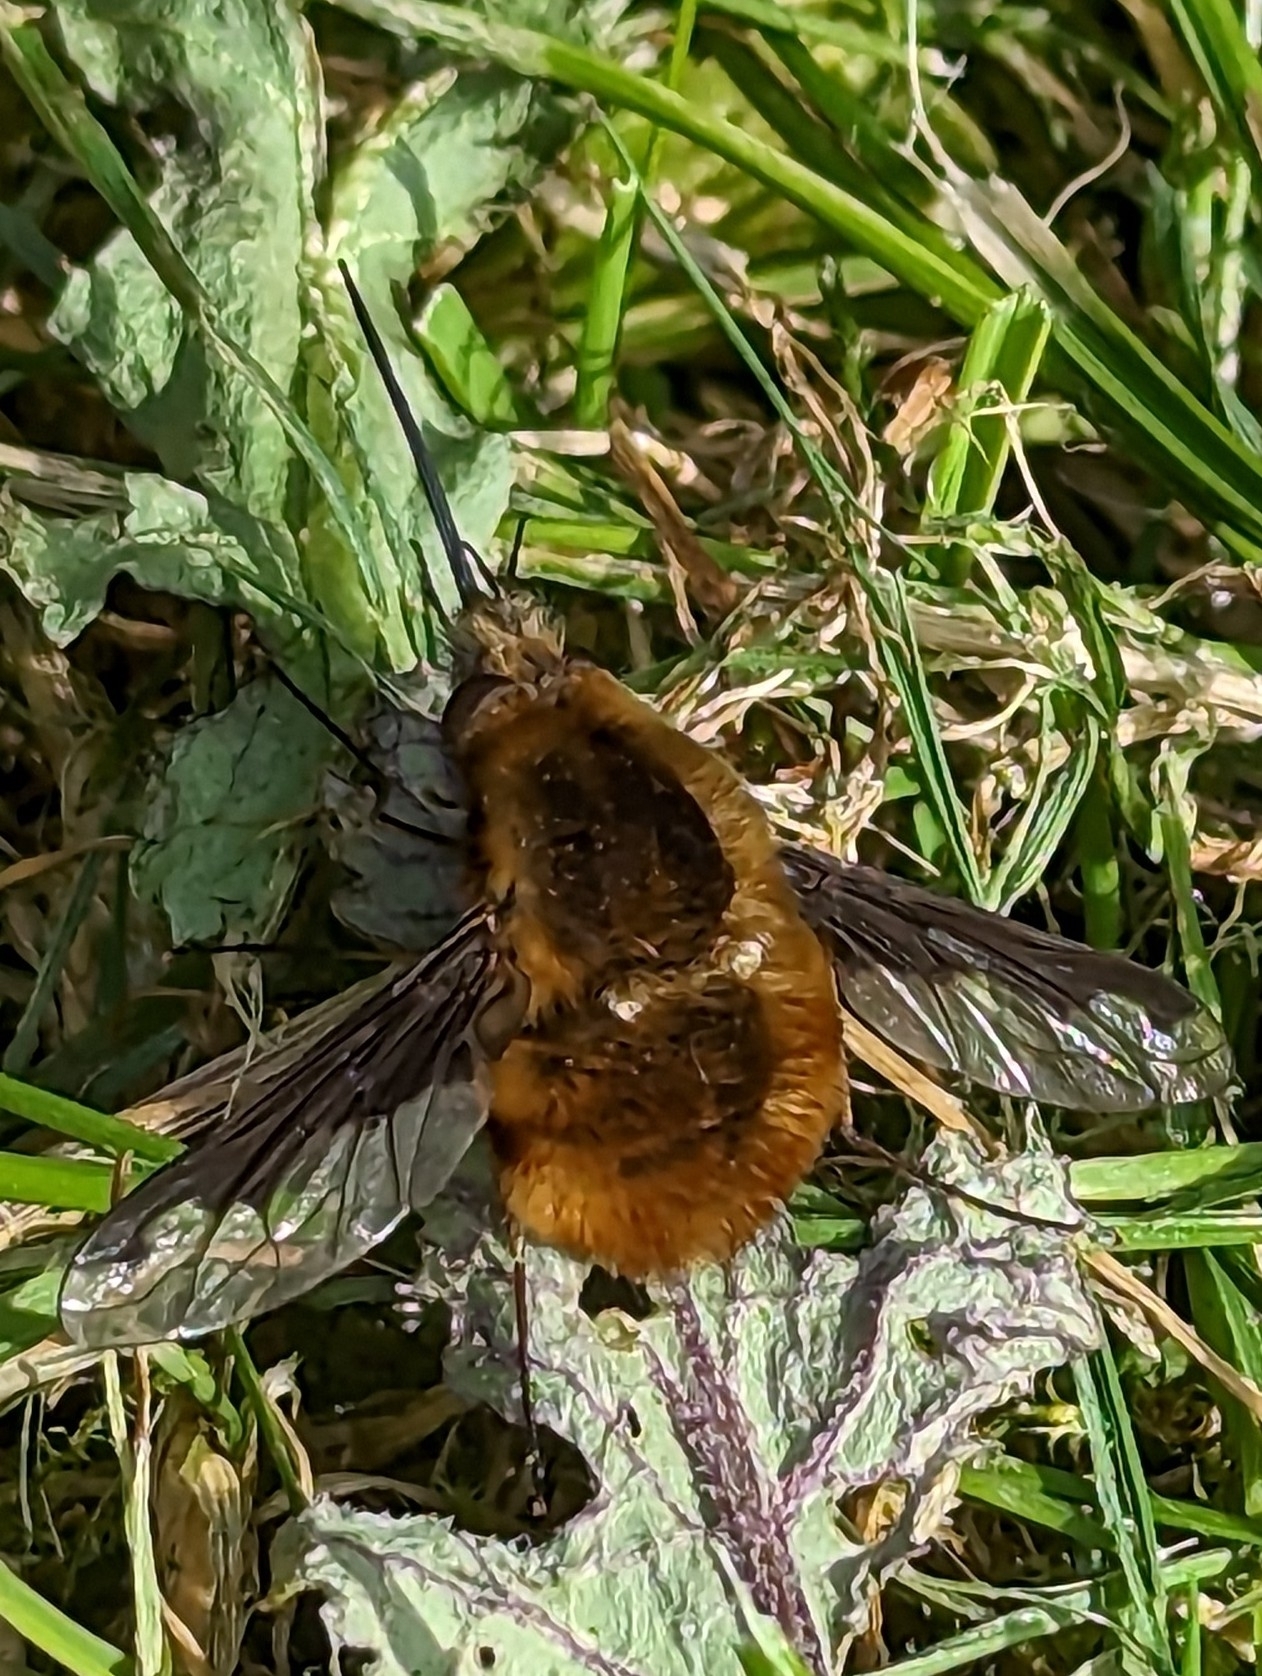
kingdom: Animalia
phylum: Arthropoda
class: Insecta
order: Diptera
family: Bombyliidae
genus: Bombylius
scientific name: Bombylius major
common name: Bee fly
